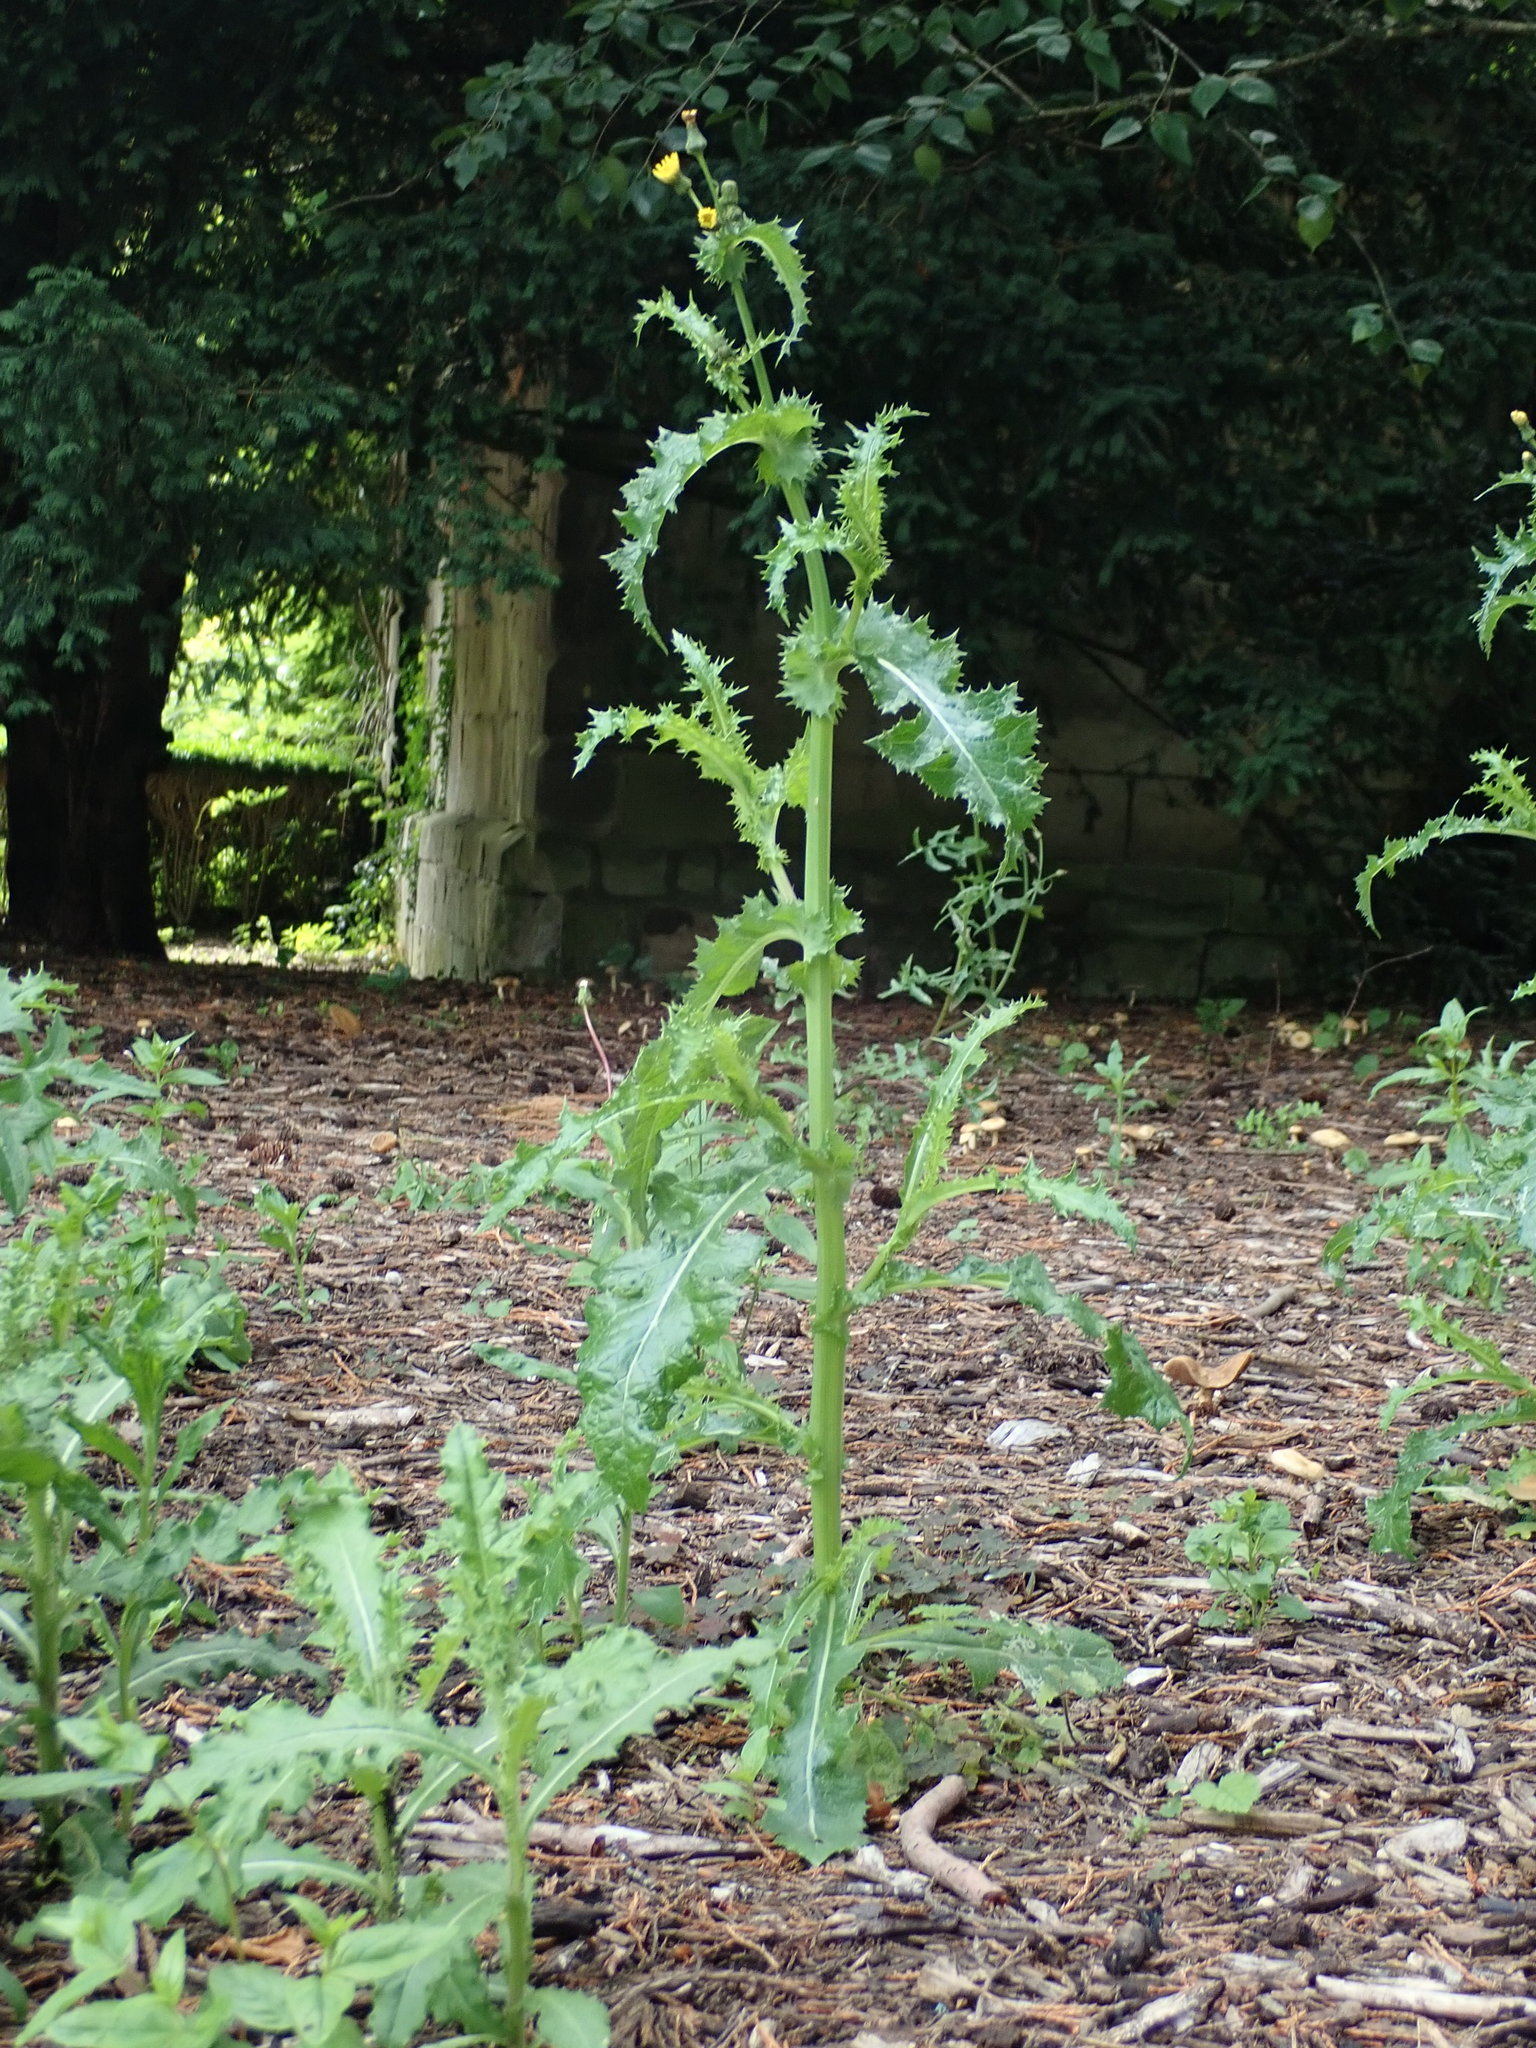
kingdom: Plantae
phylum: Tracheophyta
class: Magnoliopsida
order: Asterales
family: Asteraceae
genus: Sonchus
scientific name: Sonchus asper
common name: Prickly sow-thistle
